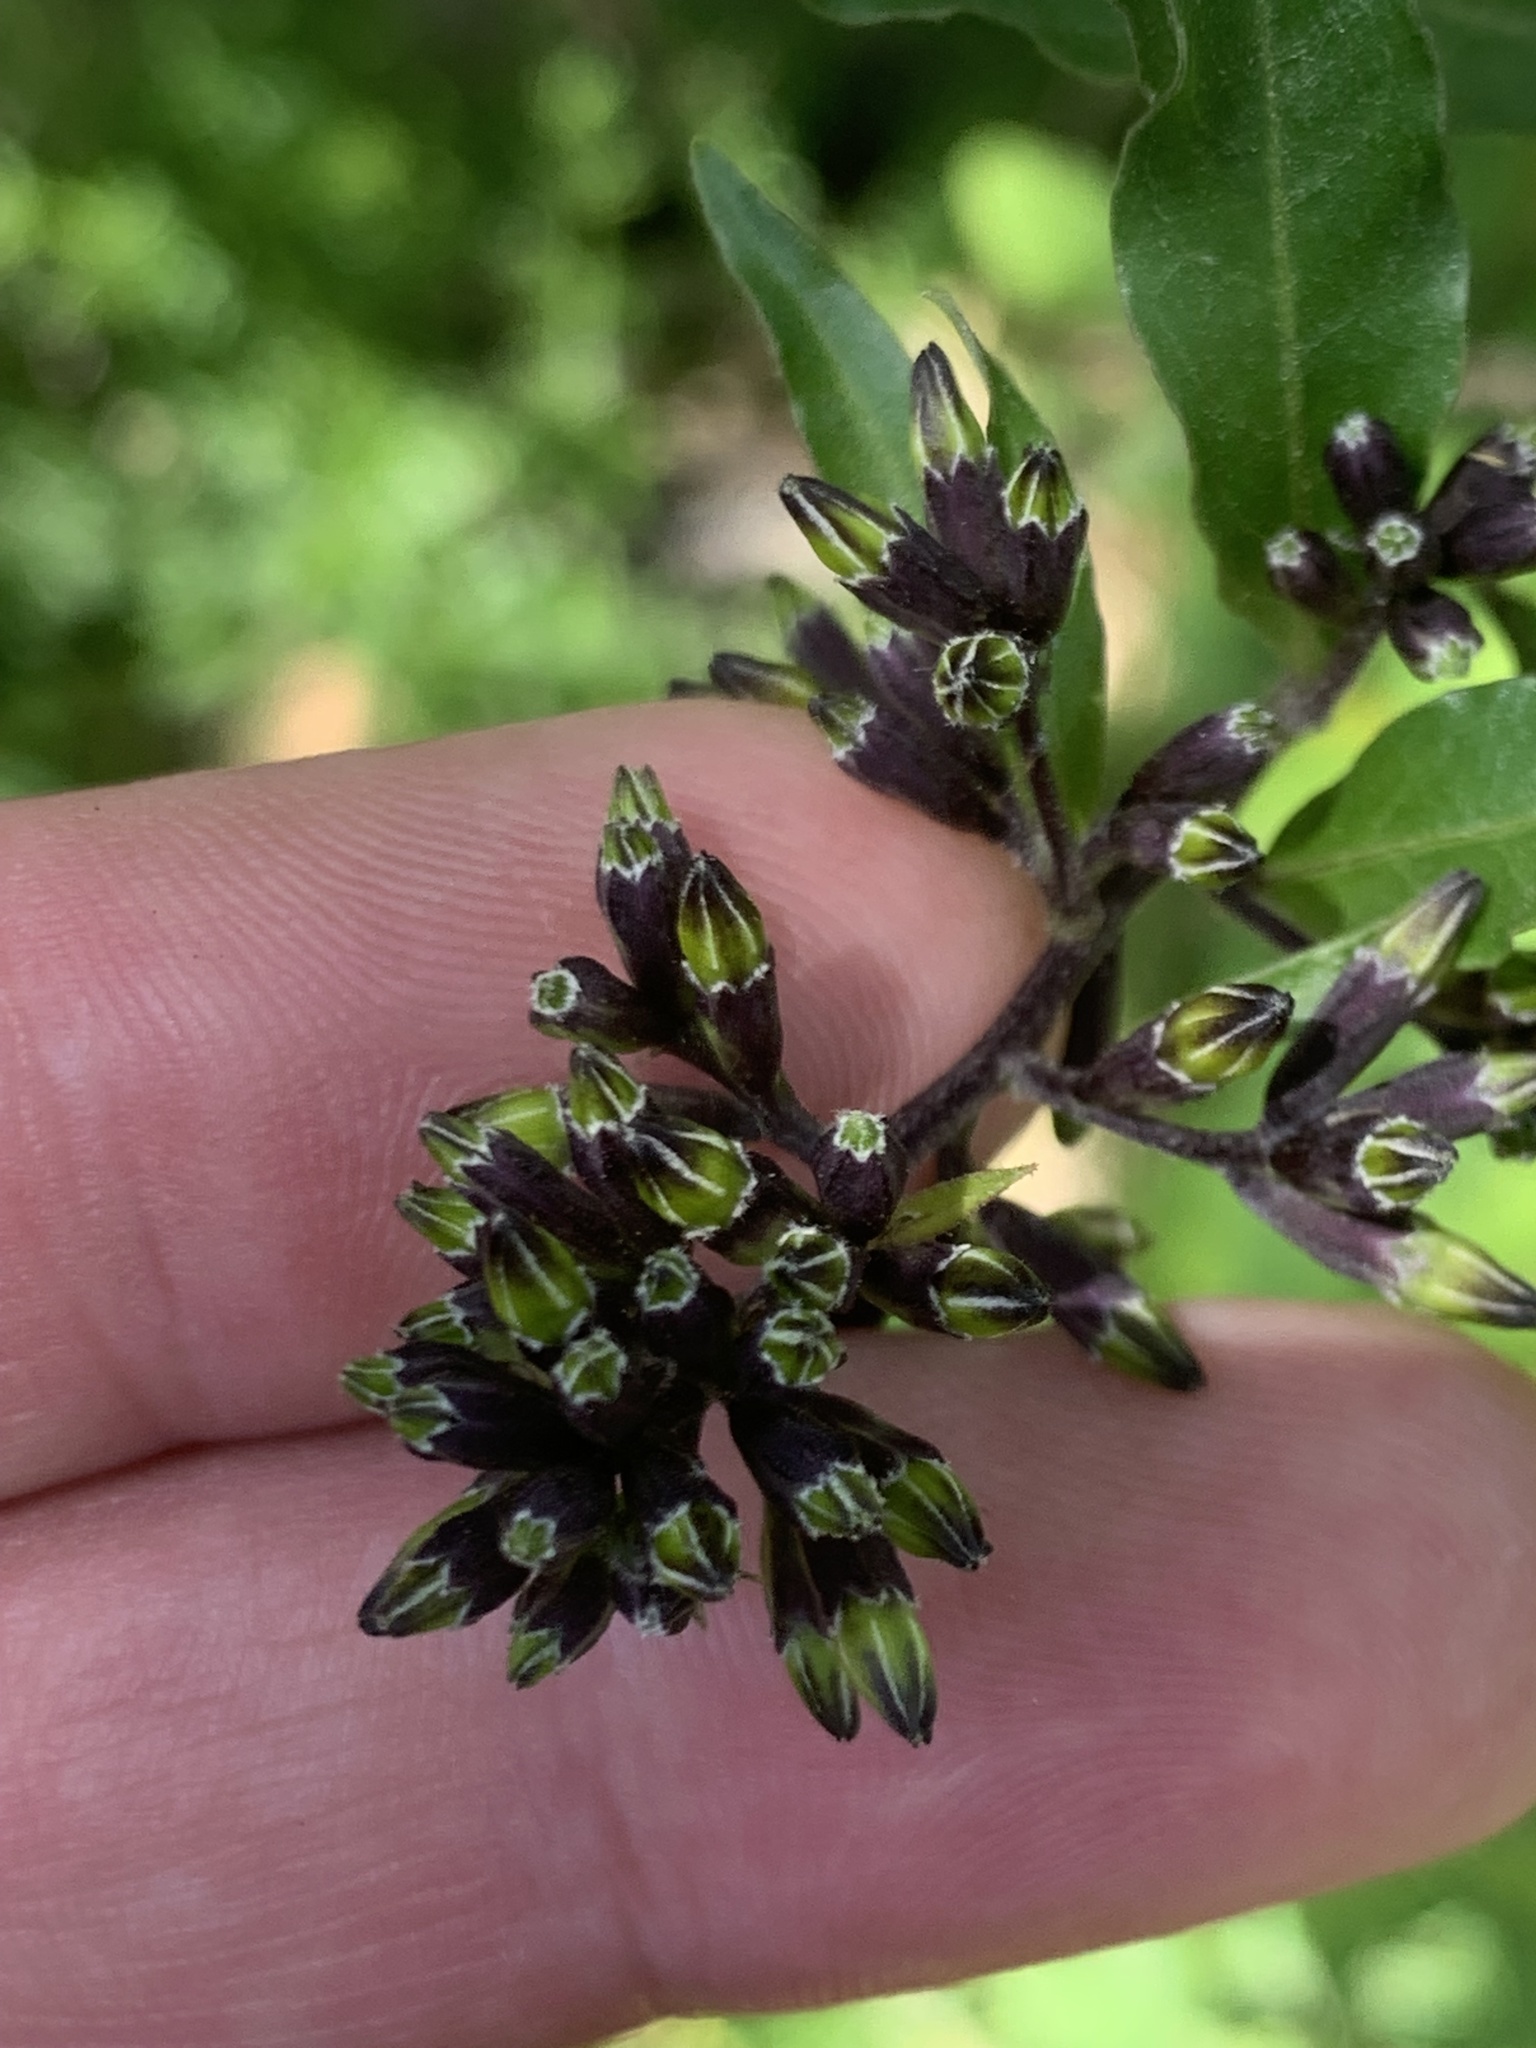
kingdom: Plantae
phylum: Tracheophyta
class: Magnoliopsida
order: Solanales
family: Solanaceae
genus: Cestrum
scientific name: Cestrum parqui
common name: Chilean cestrum
